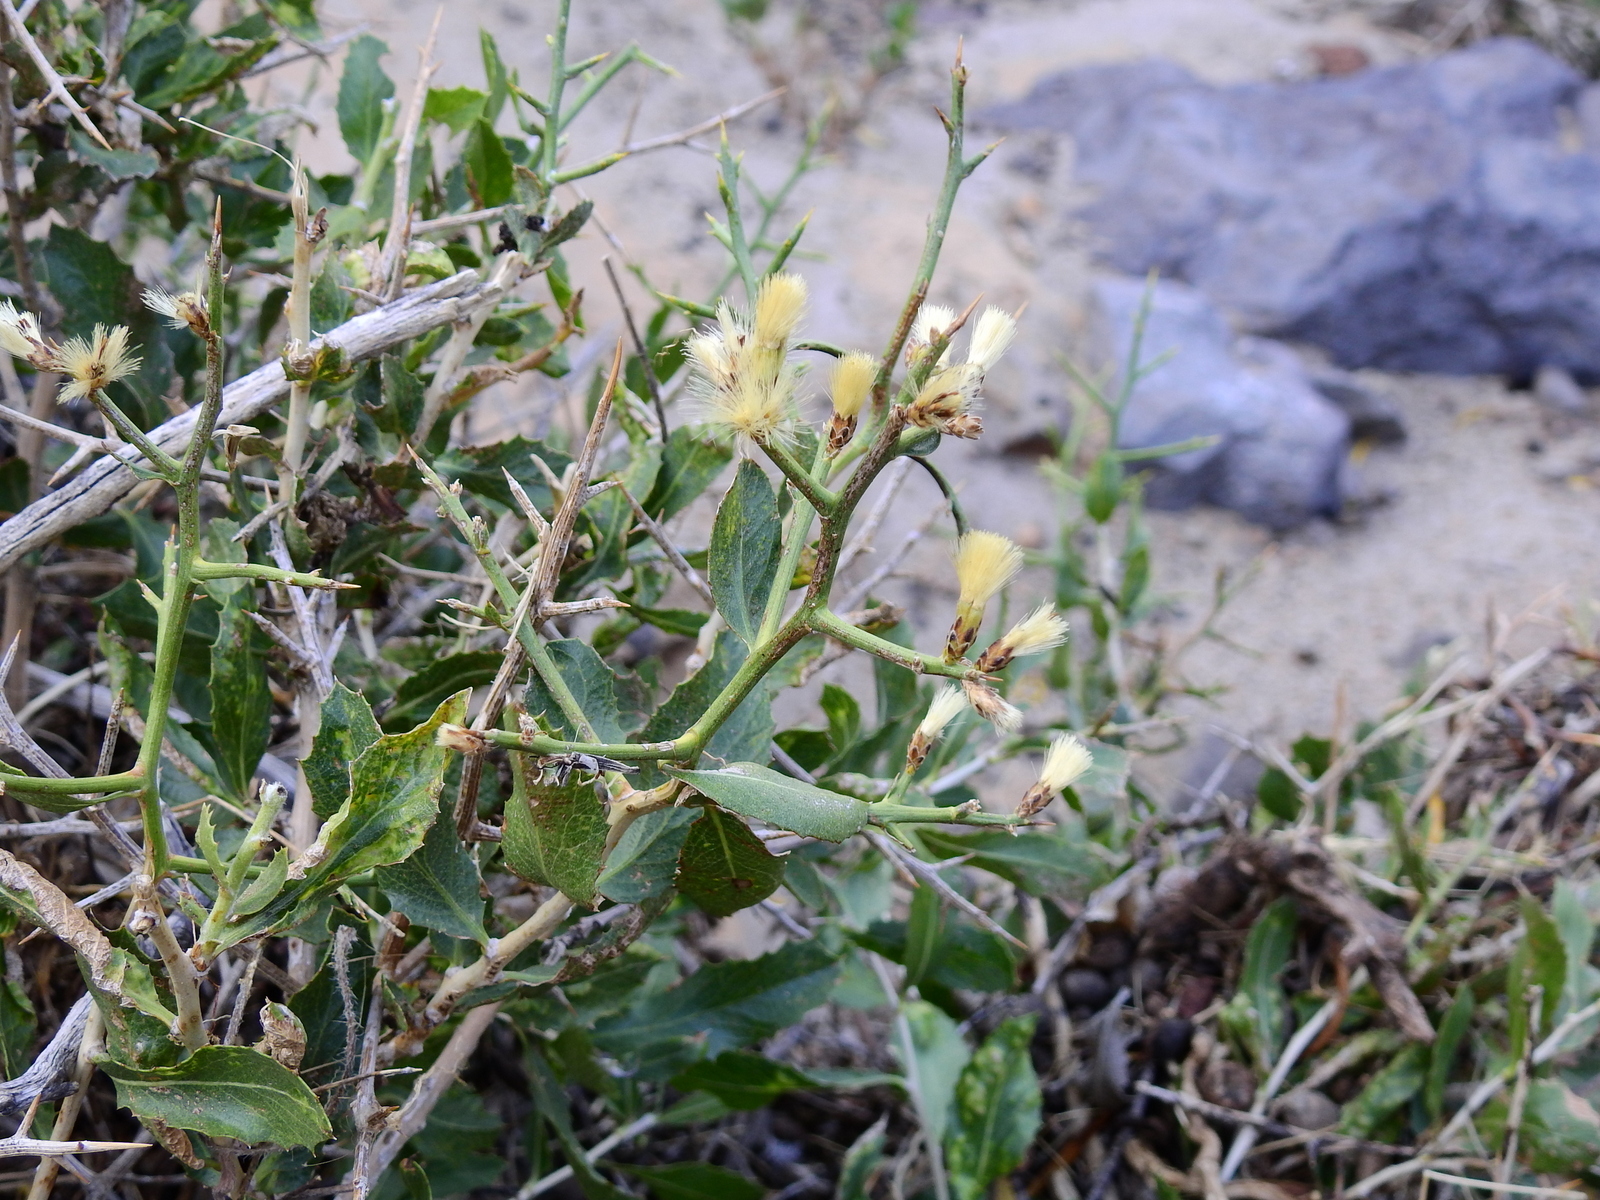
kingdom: Plantae
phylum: Tracheophyta
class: Magnoliopsida
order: Asterales
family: Asteraceae
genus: Proustia
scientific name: Proustia cuneifolia
